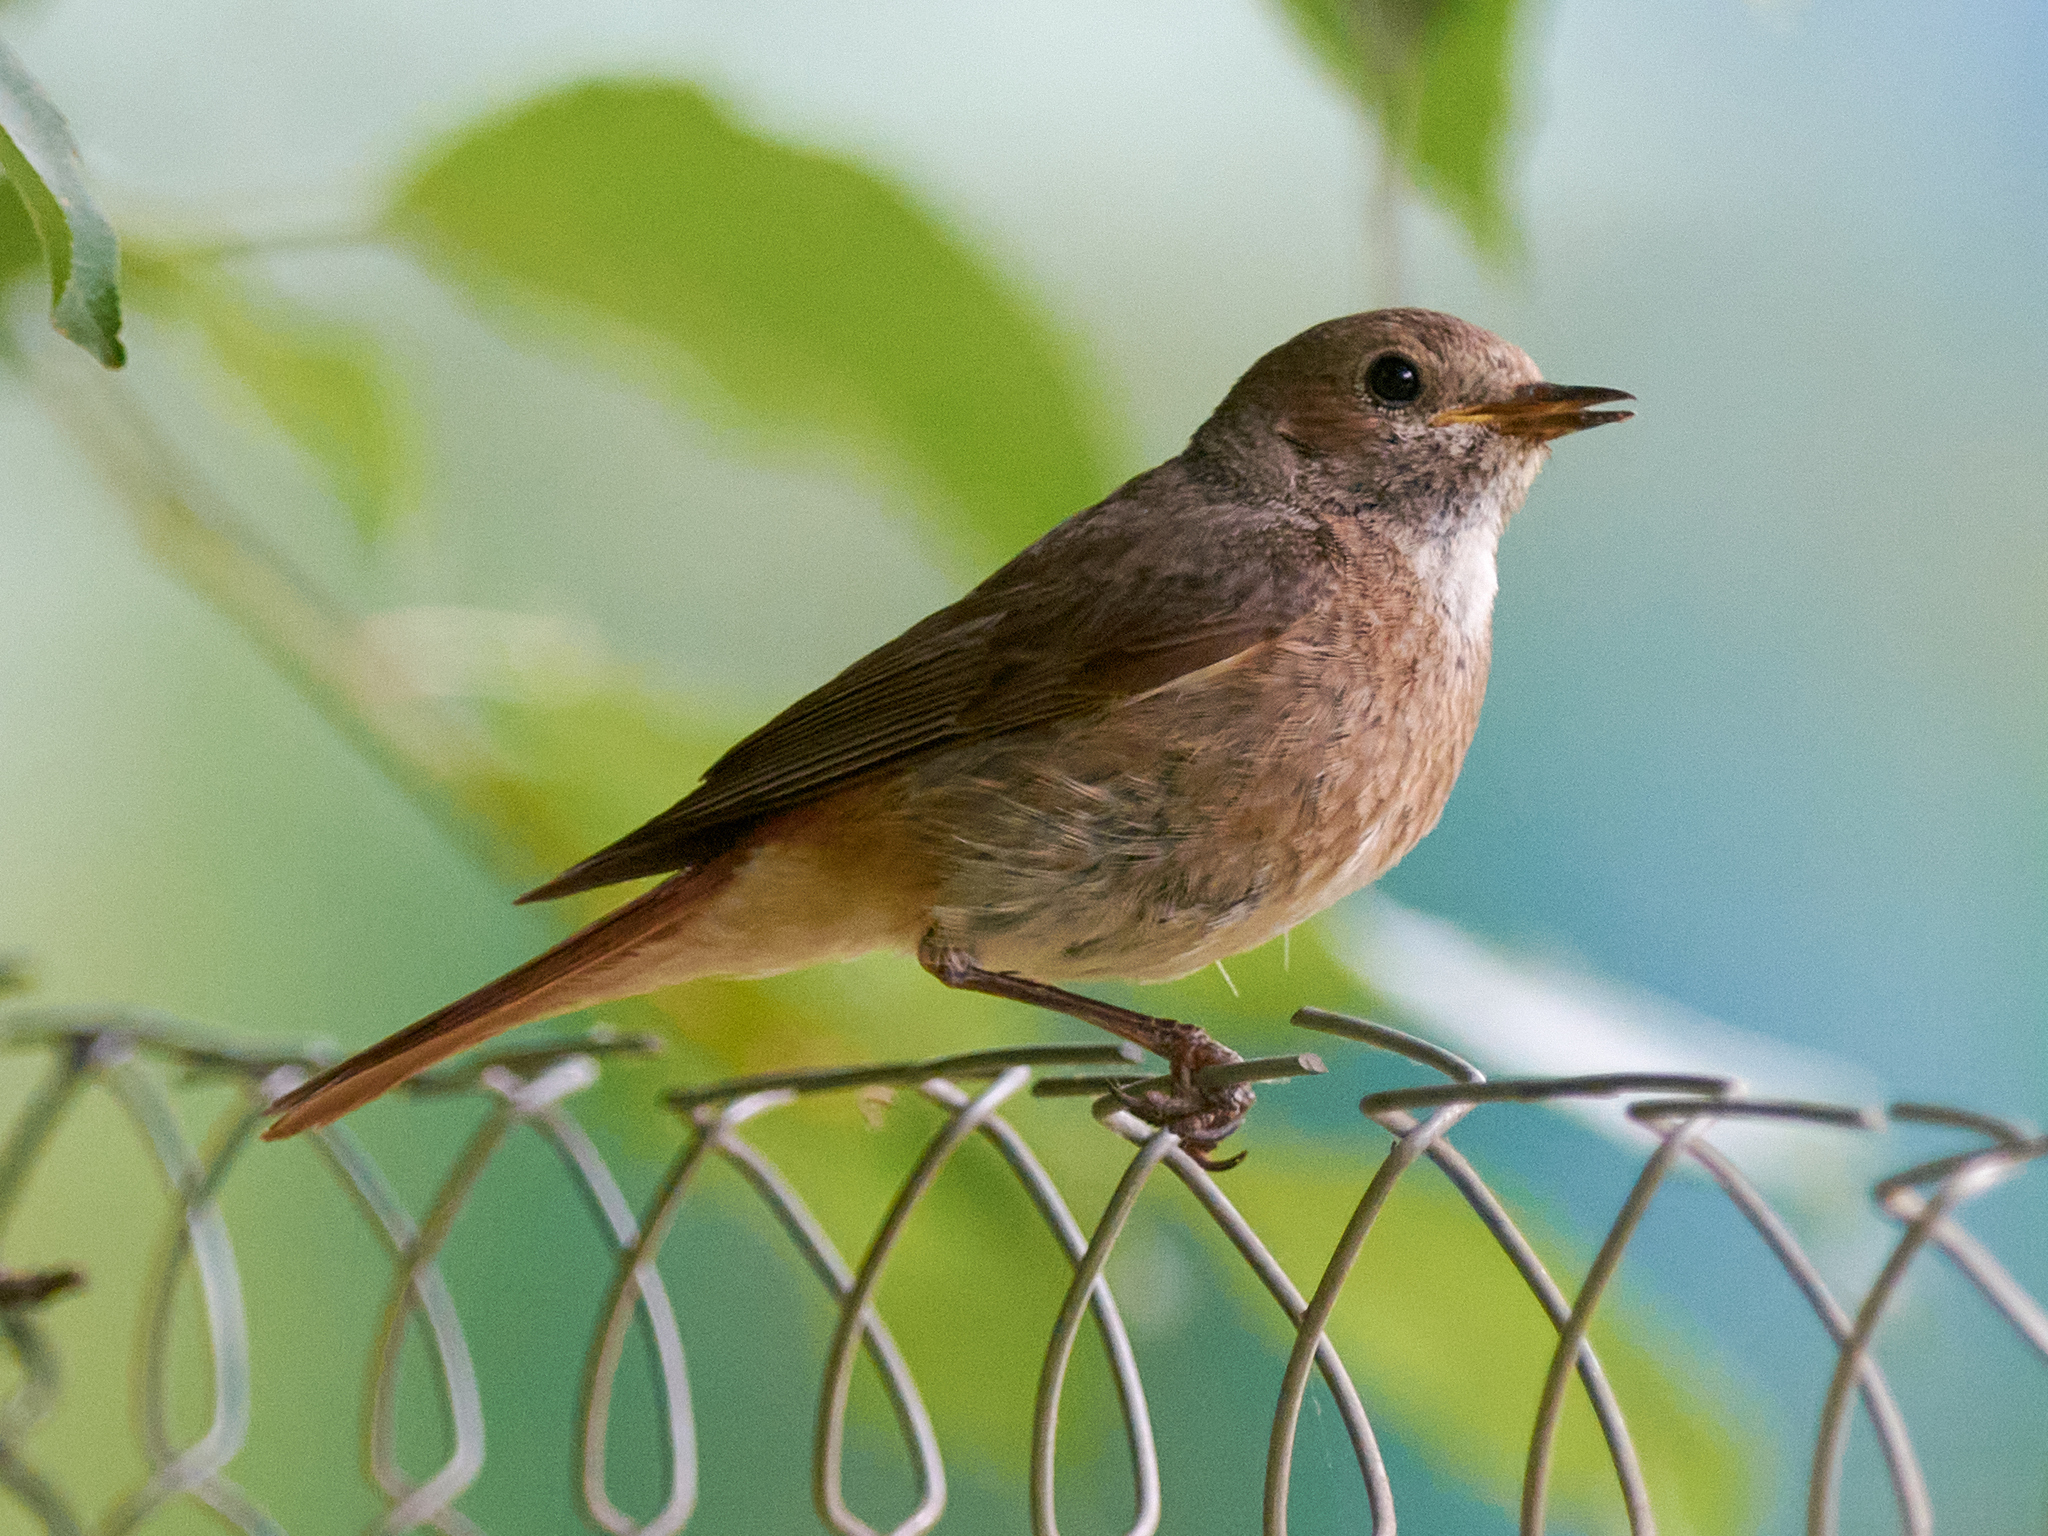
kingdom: Animalia
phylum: Chordata
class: Aves
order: Passeriformes
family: Muscicapidae
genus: Phoenicurus
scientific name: Phoenicurus phoenicurus
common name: Common redstart
